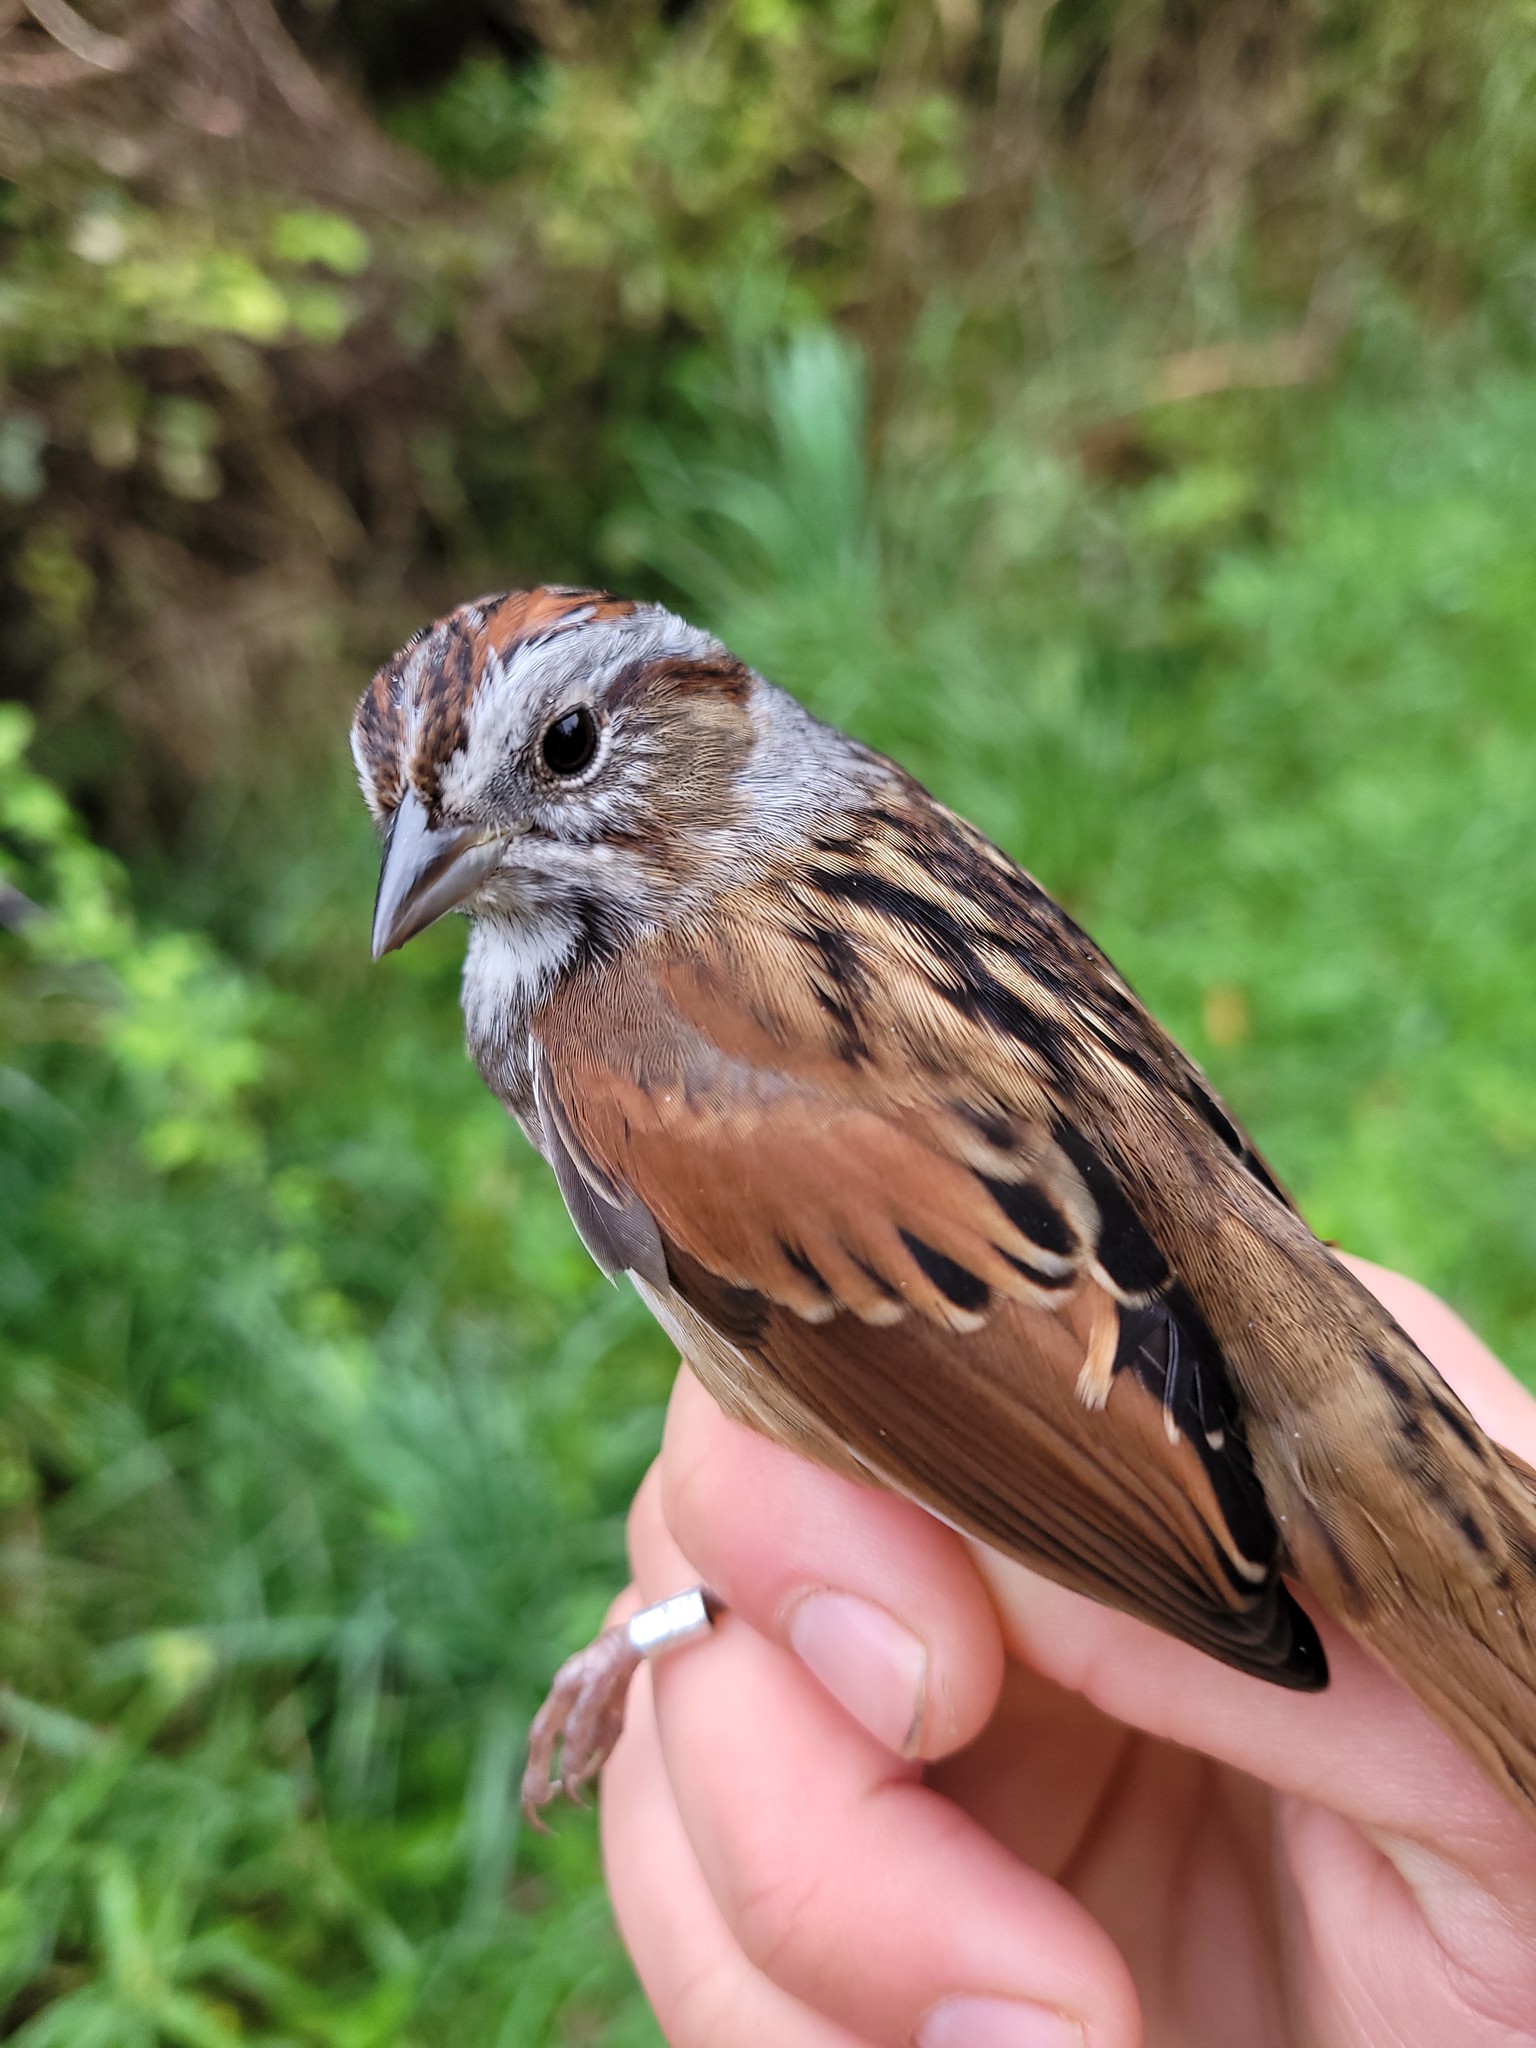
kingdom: Animalia
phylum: Chordata
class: Aves
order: Passeriformes
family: Passerellidae
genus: Melospiza
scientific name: Melospiza georgiana
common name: Swamp sparrow
